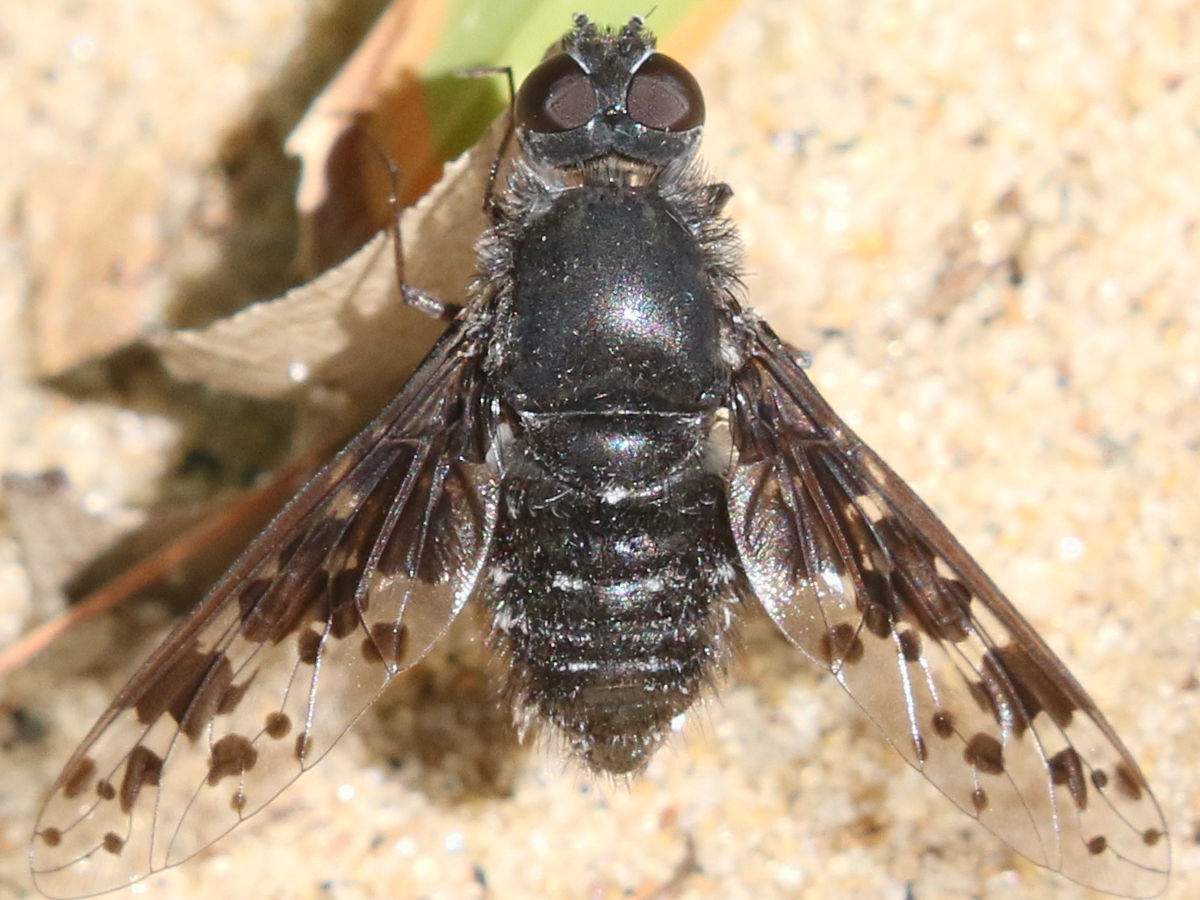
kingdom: Animalia
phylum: Arthropoda
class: Insecta
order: Diptera
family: Bombyliidae
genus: Anthrax
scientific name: Anthrax
